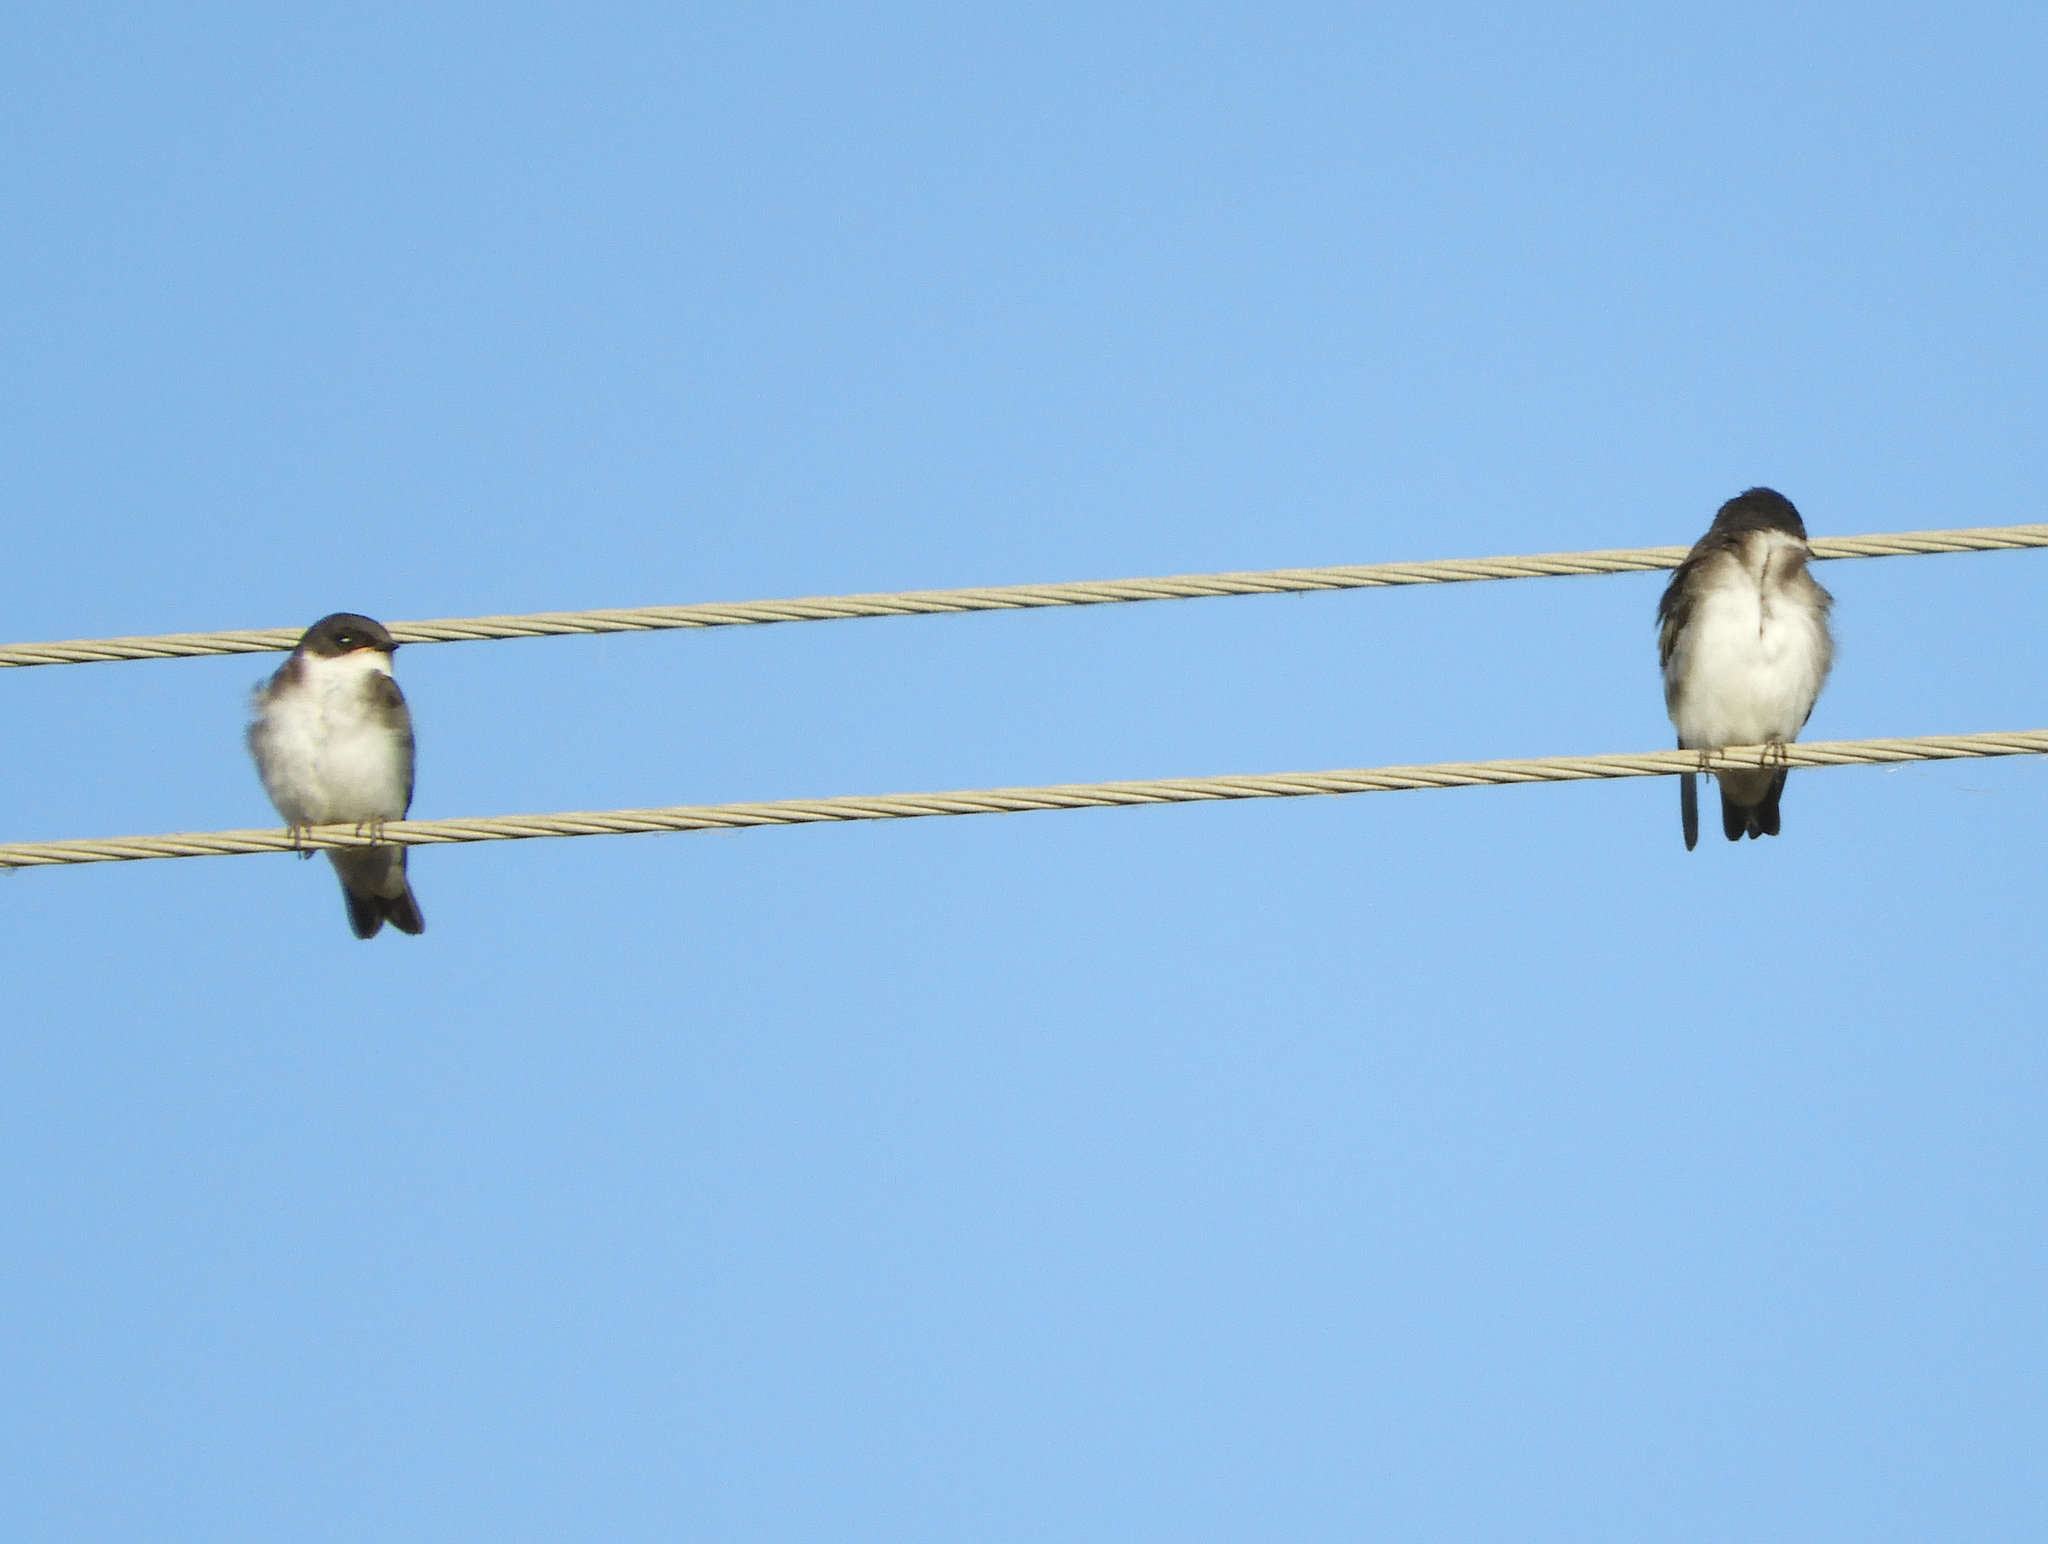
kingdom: Animalia
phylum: Chordata
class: Aves
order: Passeriformes
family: Hirundinidae
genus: Tachycineta
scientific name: Tachycineta bicolor
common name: Tree swallow
